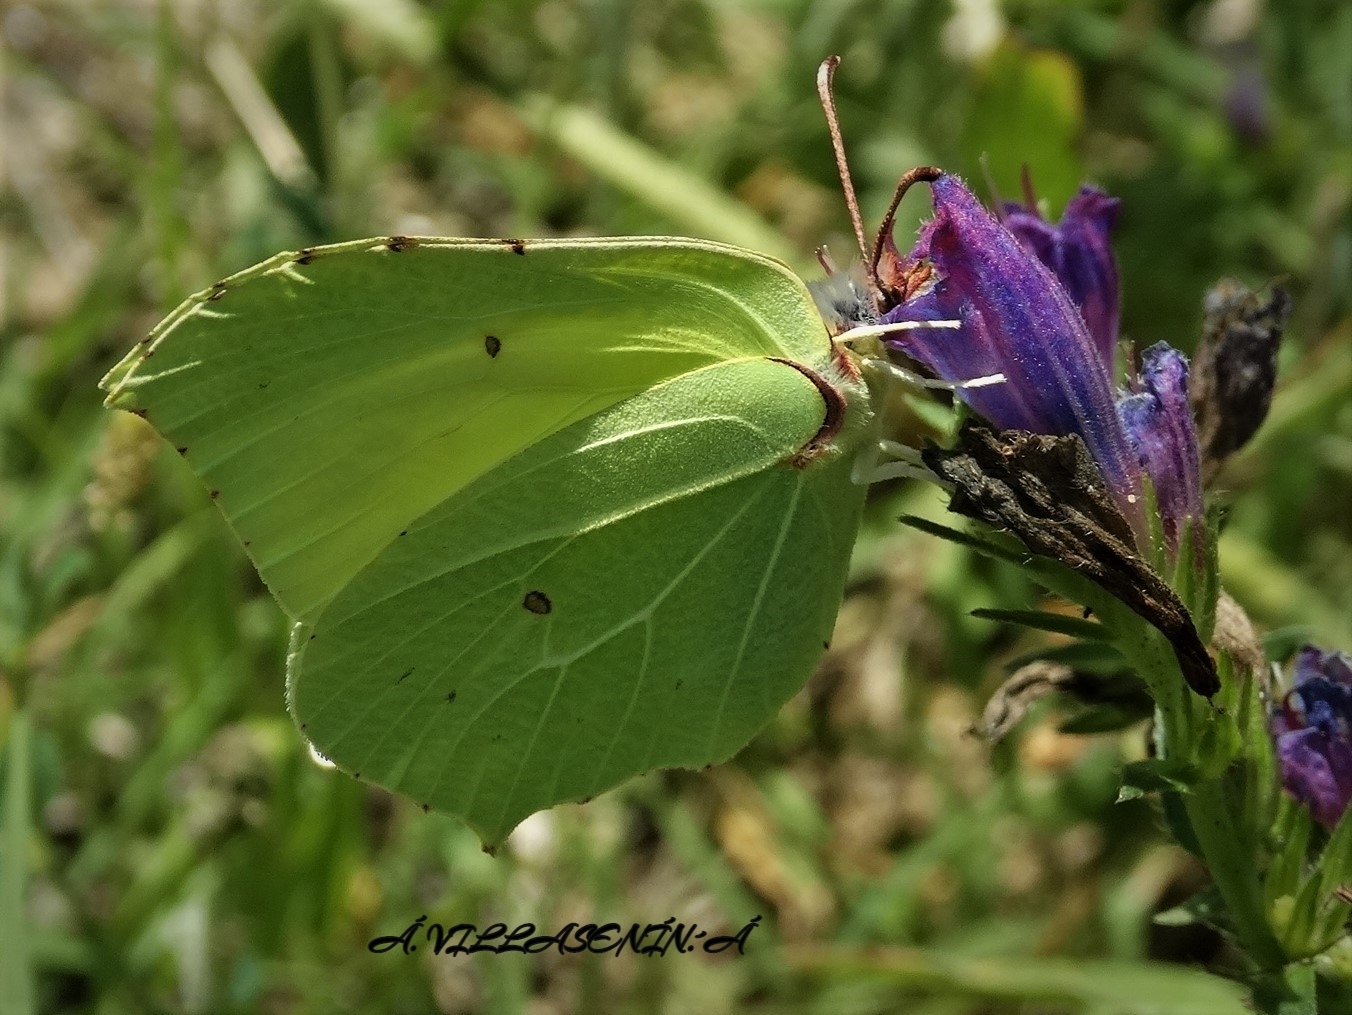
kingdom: Animalia
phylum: Arthropoda
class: Insecta
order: Lepidoptera
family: Pieridae
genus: Gonepteryx
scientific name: Gonepteryx rhamni
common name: Brimstone
